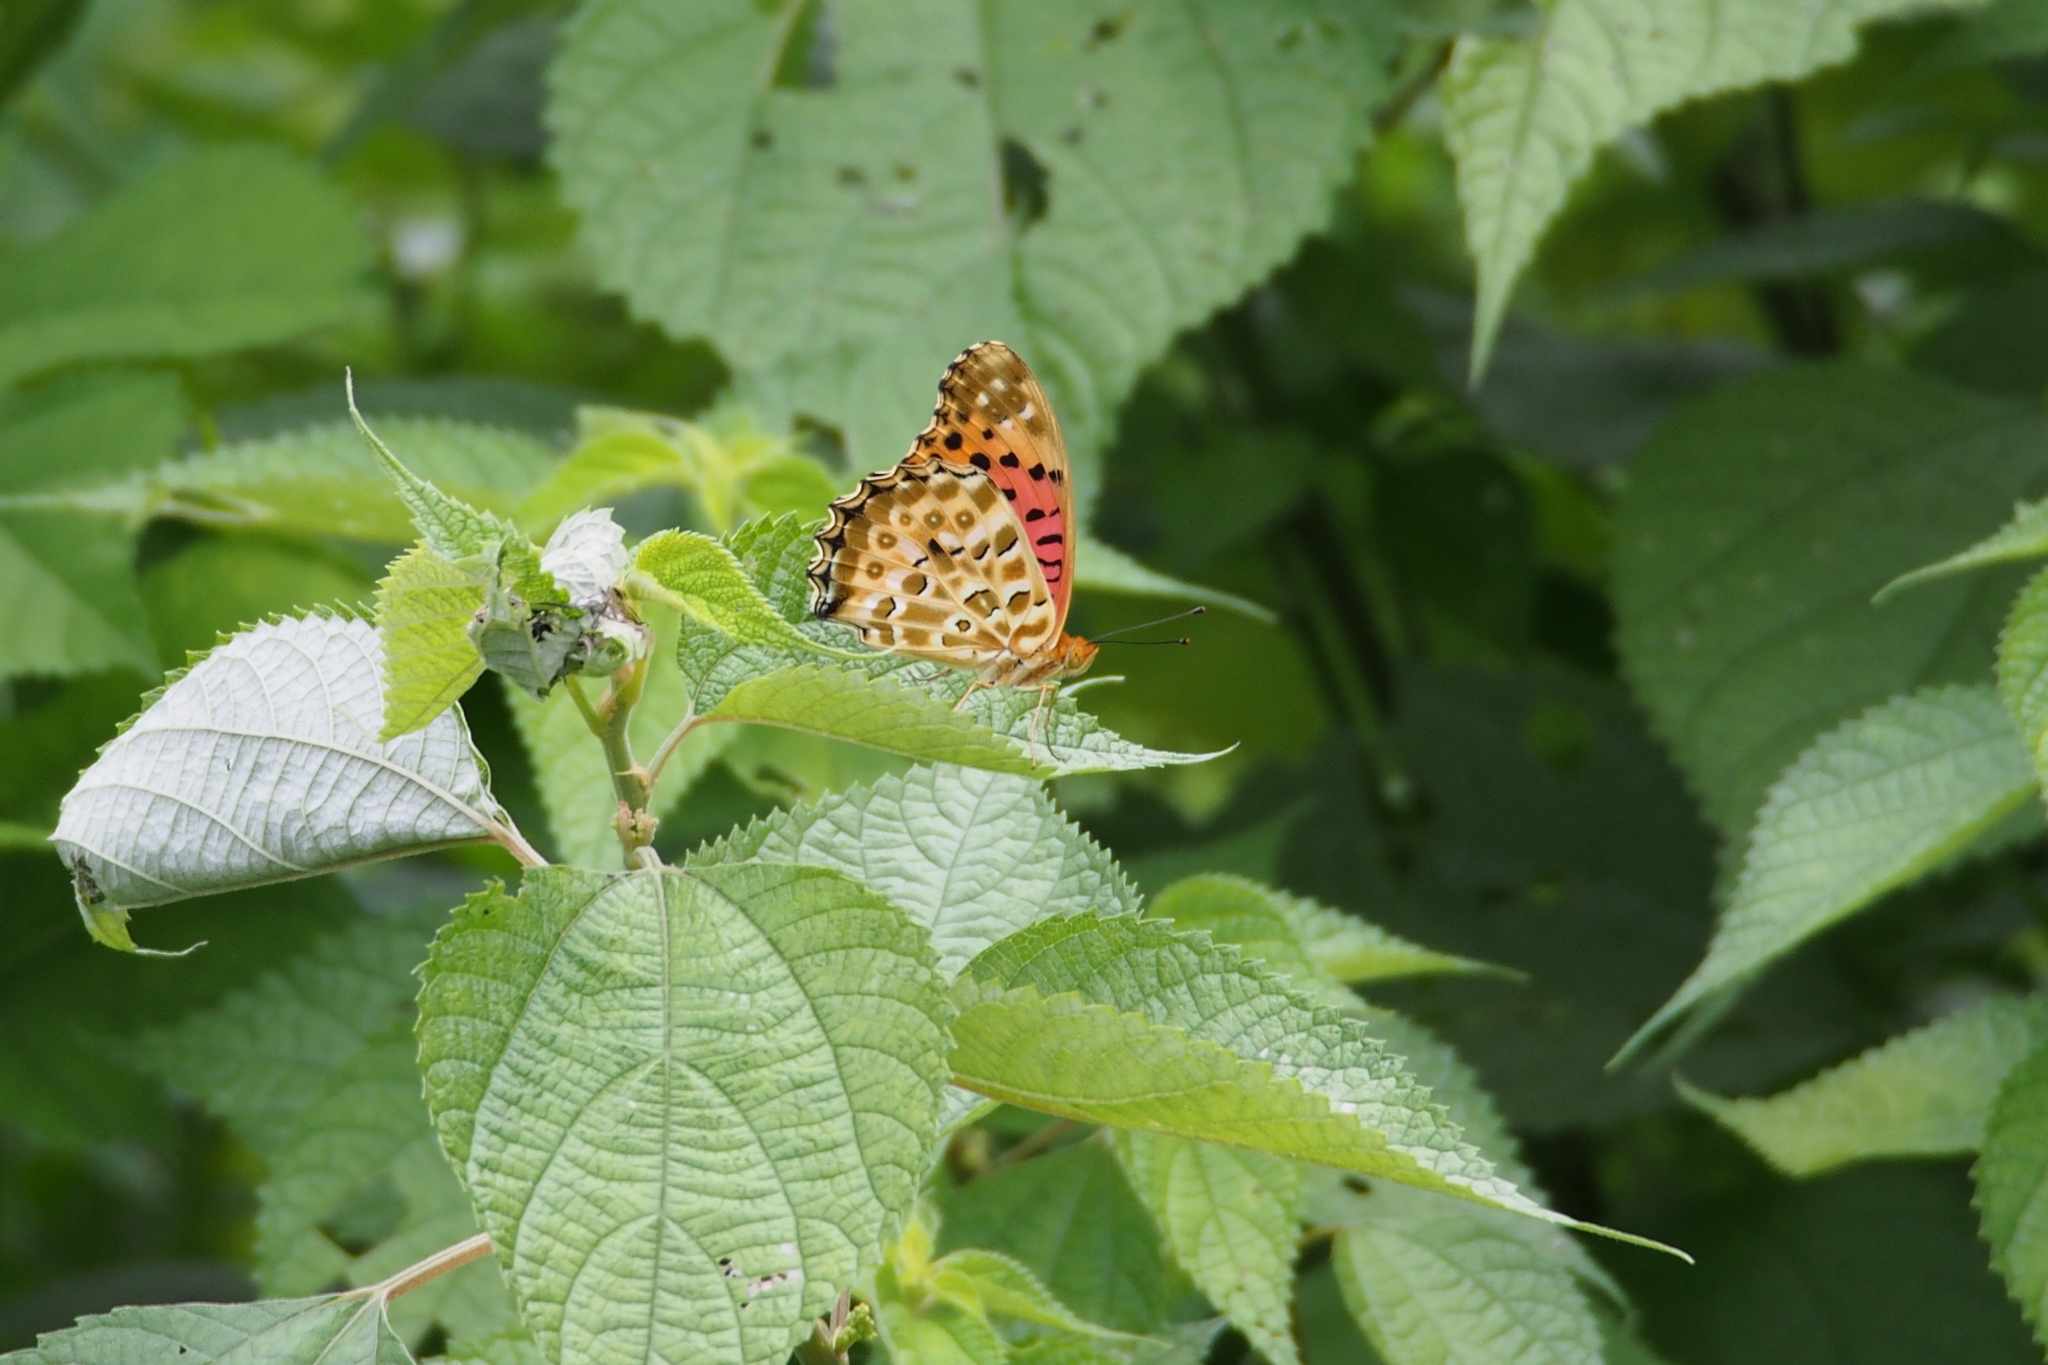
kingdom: Animalia
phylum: Arthropoda
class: Insecta
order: Lepidoptera
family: Nymphalidae
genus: Argynnis
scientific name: Argynnis hyperbius
